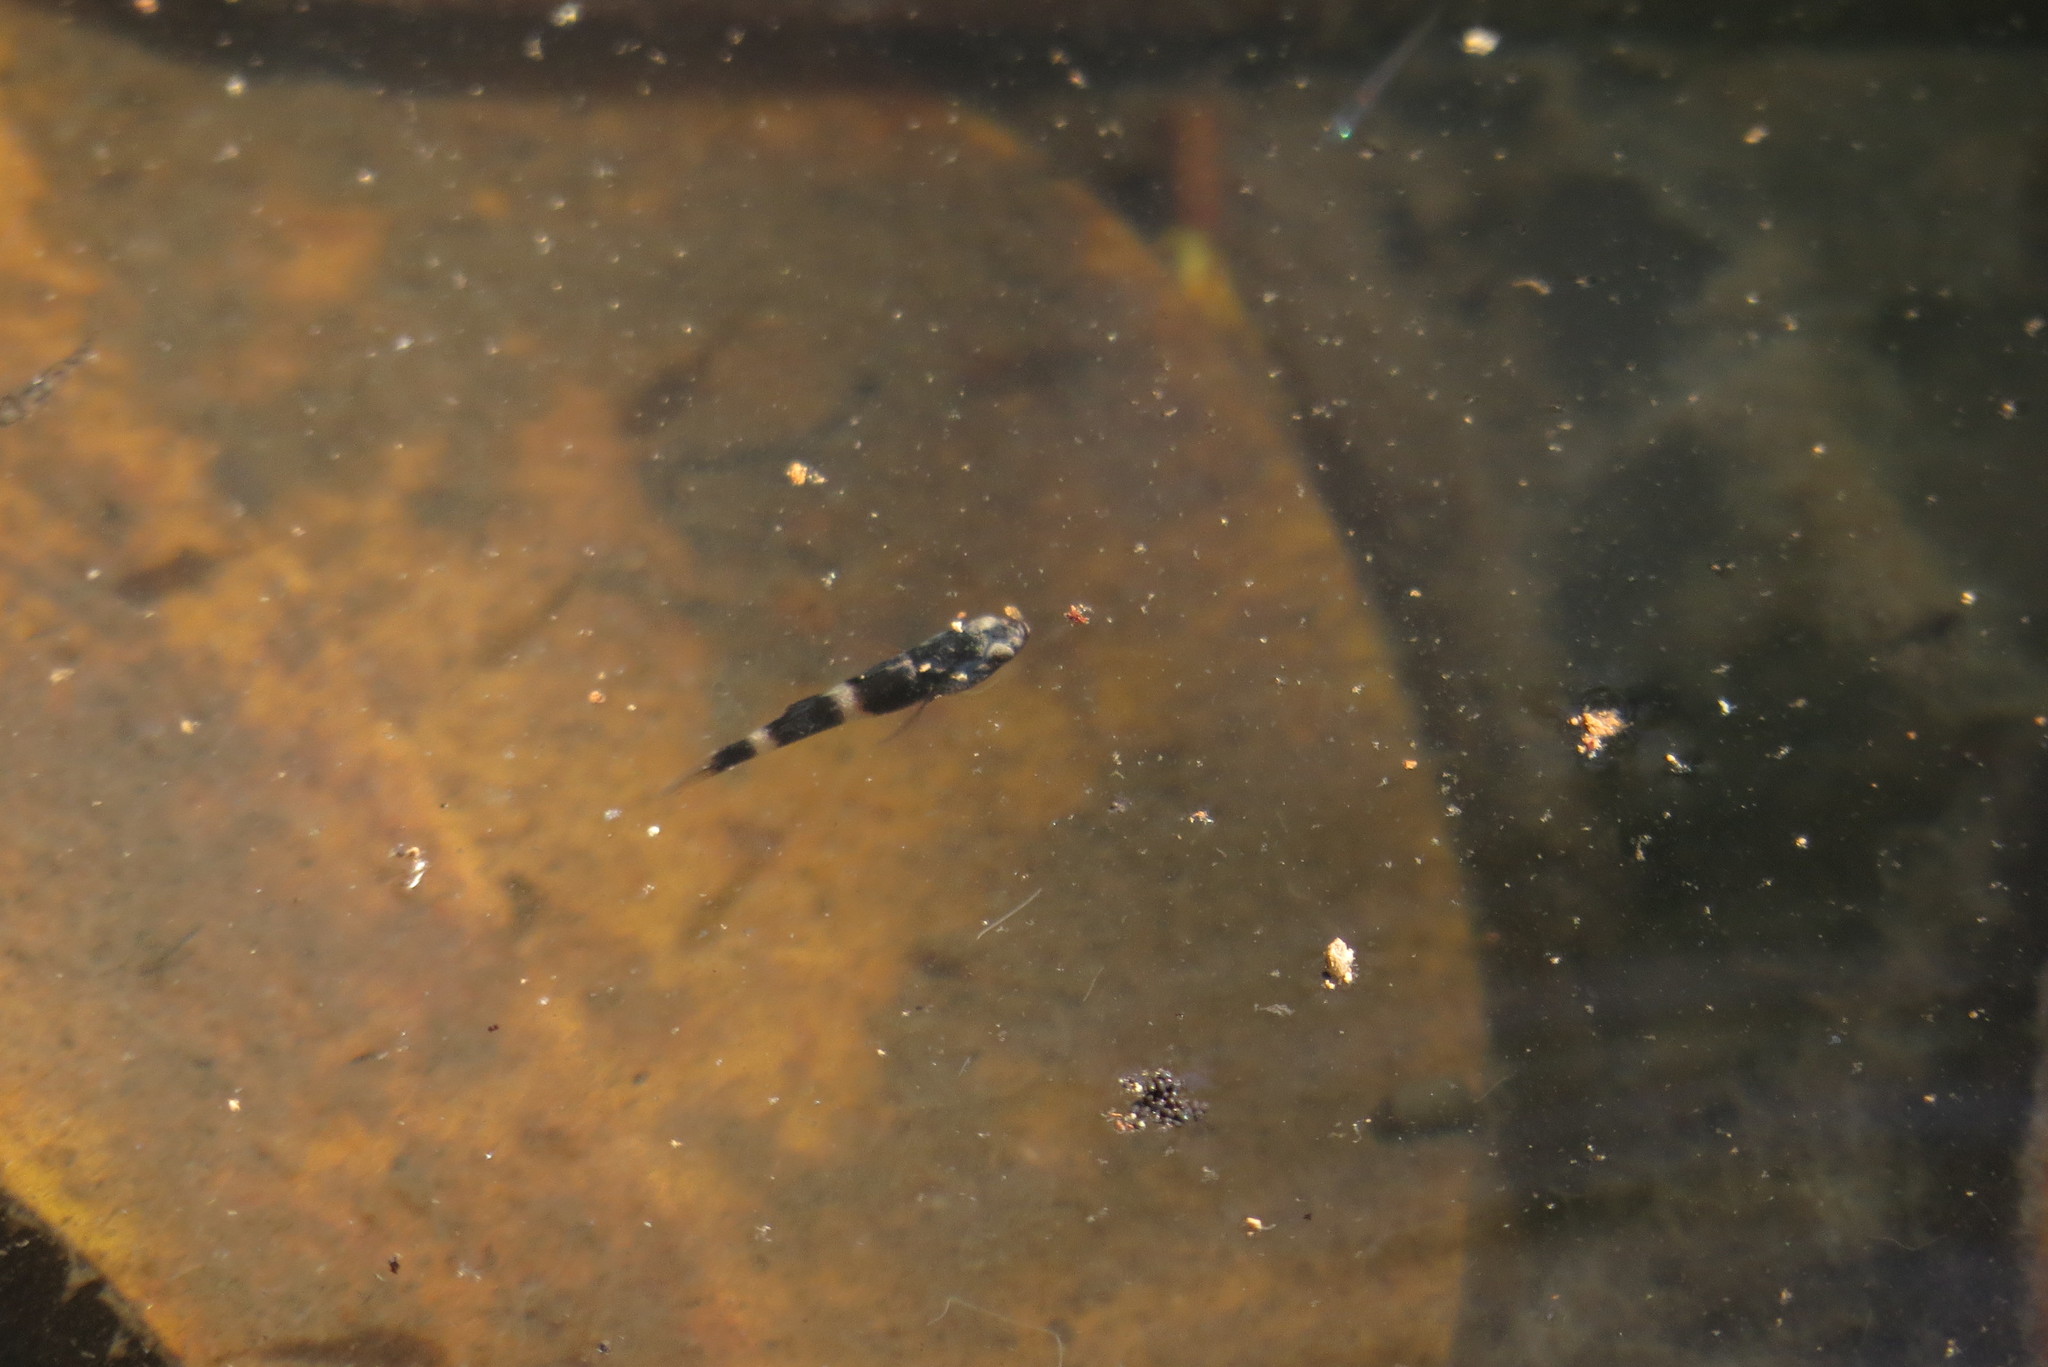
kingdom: Animalia
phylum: Chordata
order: Perciformes
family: Eleotridae
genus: Ophiocara
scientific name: Ophiocara porocephala
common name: Spangled gudgeon
